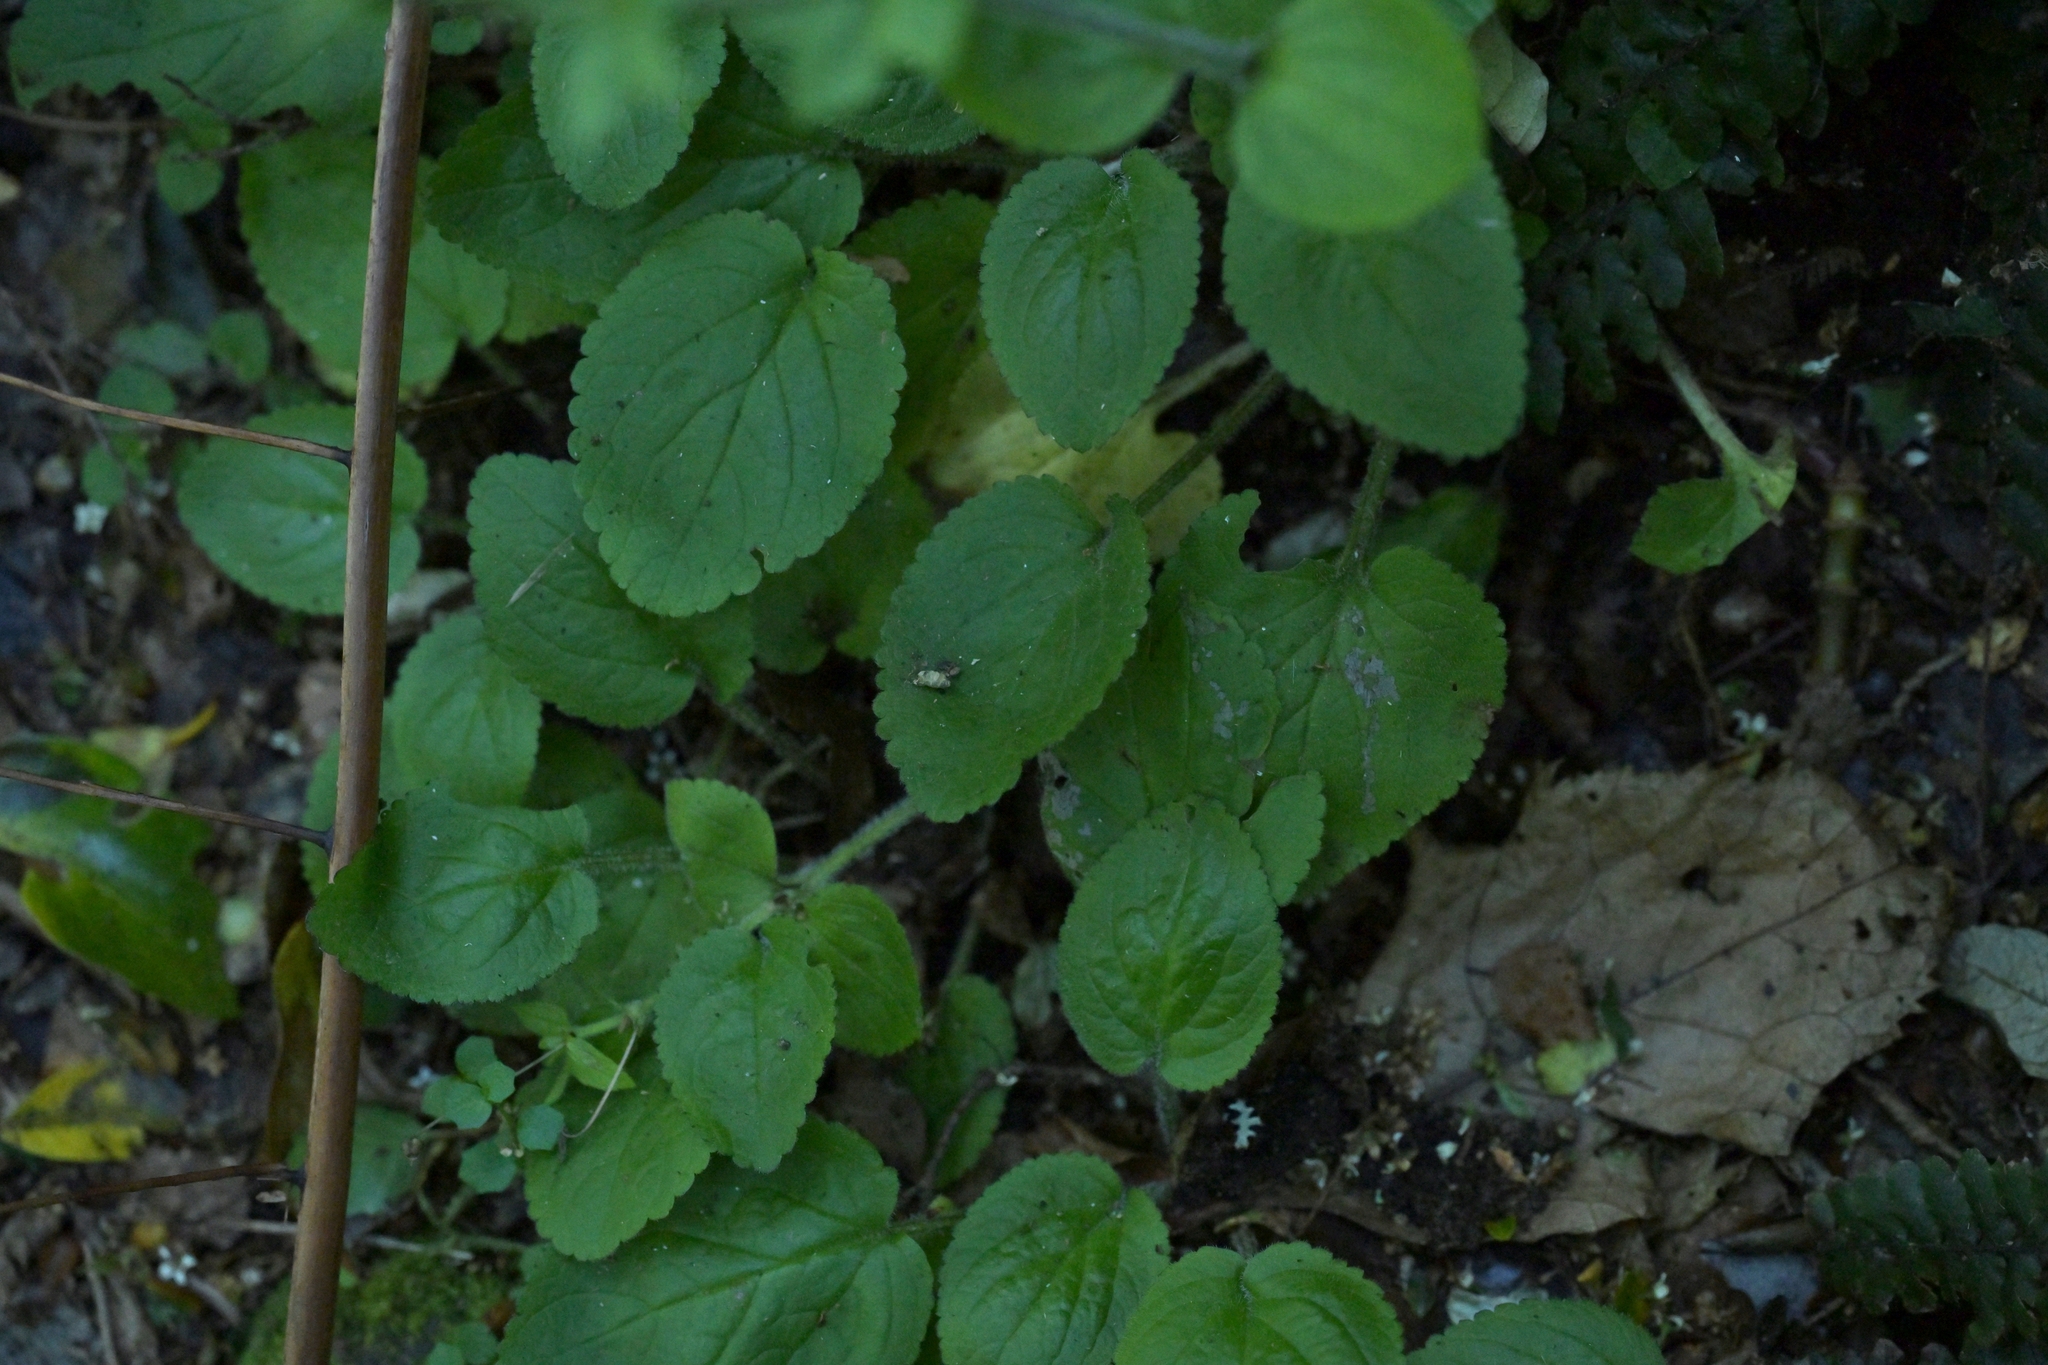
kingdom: Plantae
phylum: Tracheophyta
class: Magnoliopsida
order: Lamiales
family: Plantaginaceae
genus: Ourisia
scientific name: Ourisia macrophylla
